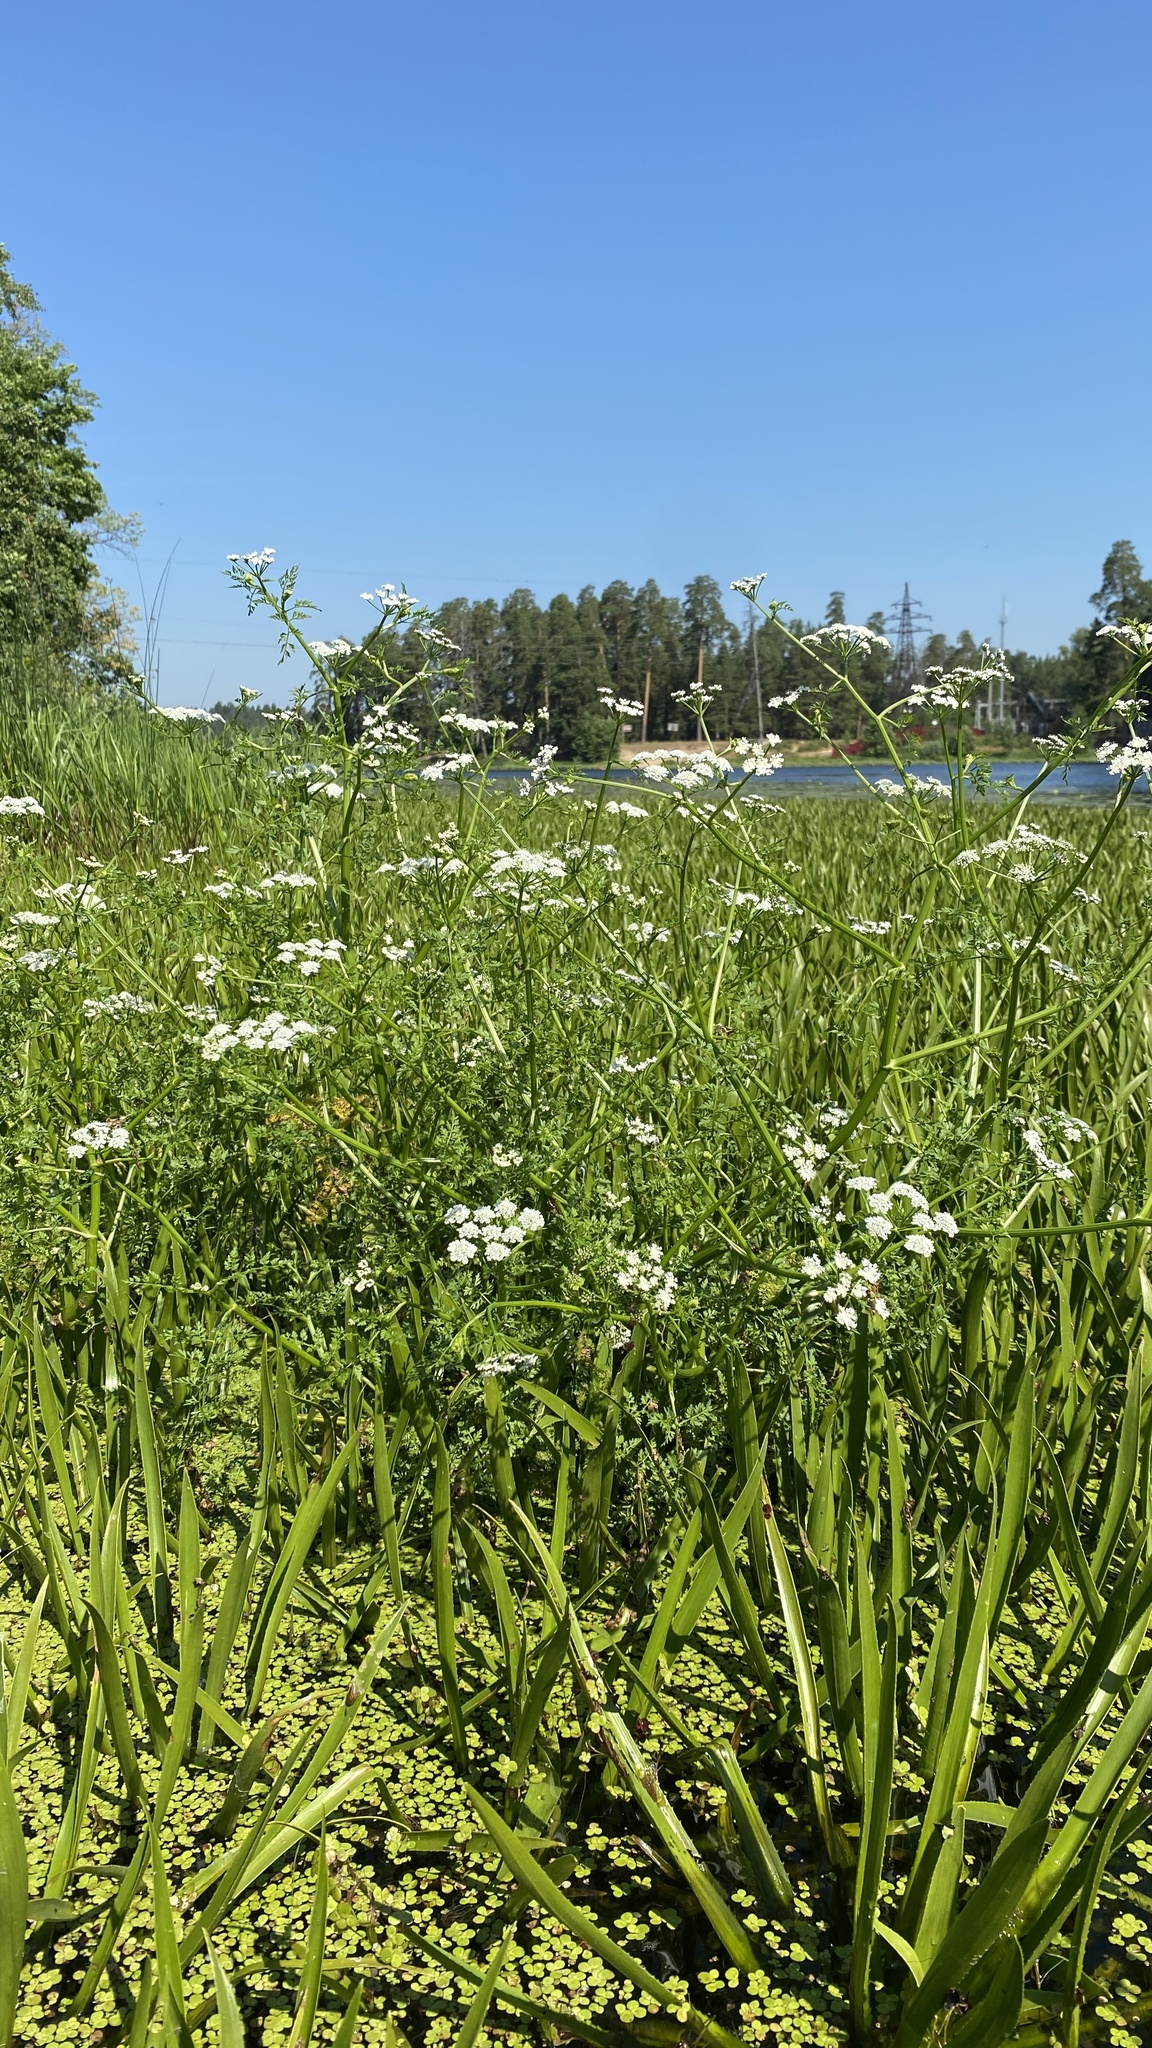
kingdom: Plantae
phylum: Tracheophyta
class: Magnoliopsida
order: Apiales
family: Apiaceae
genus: Oenanthe
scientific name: Oenanthe aquatica
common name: Fine-leaved water-dropwort
